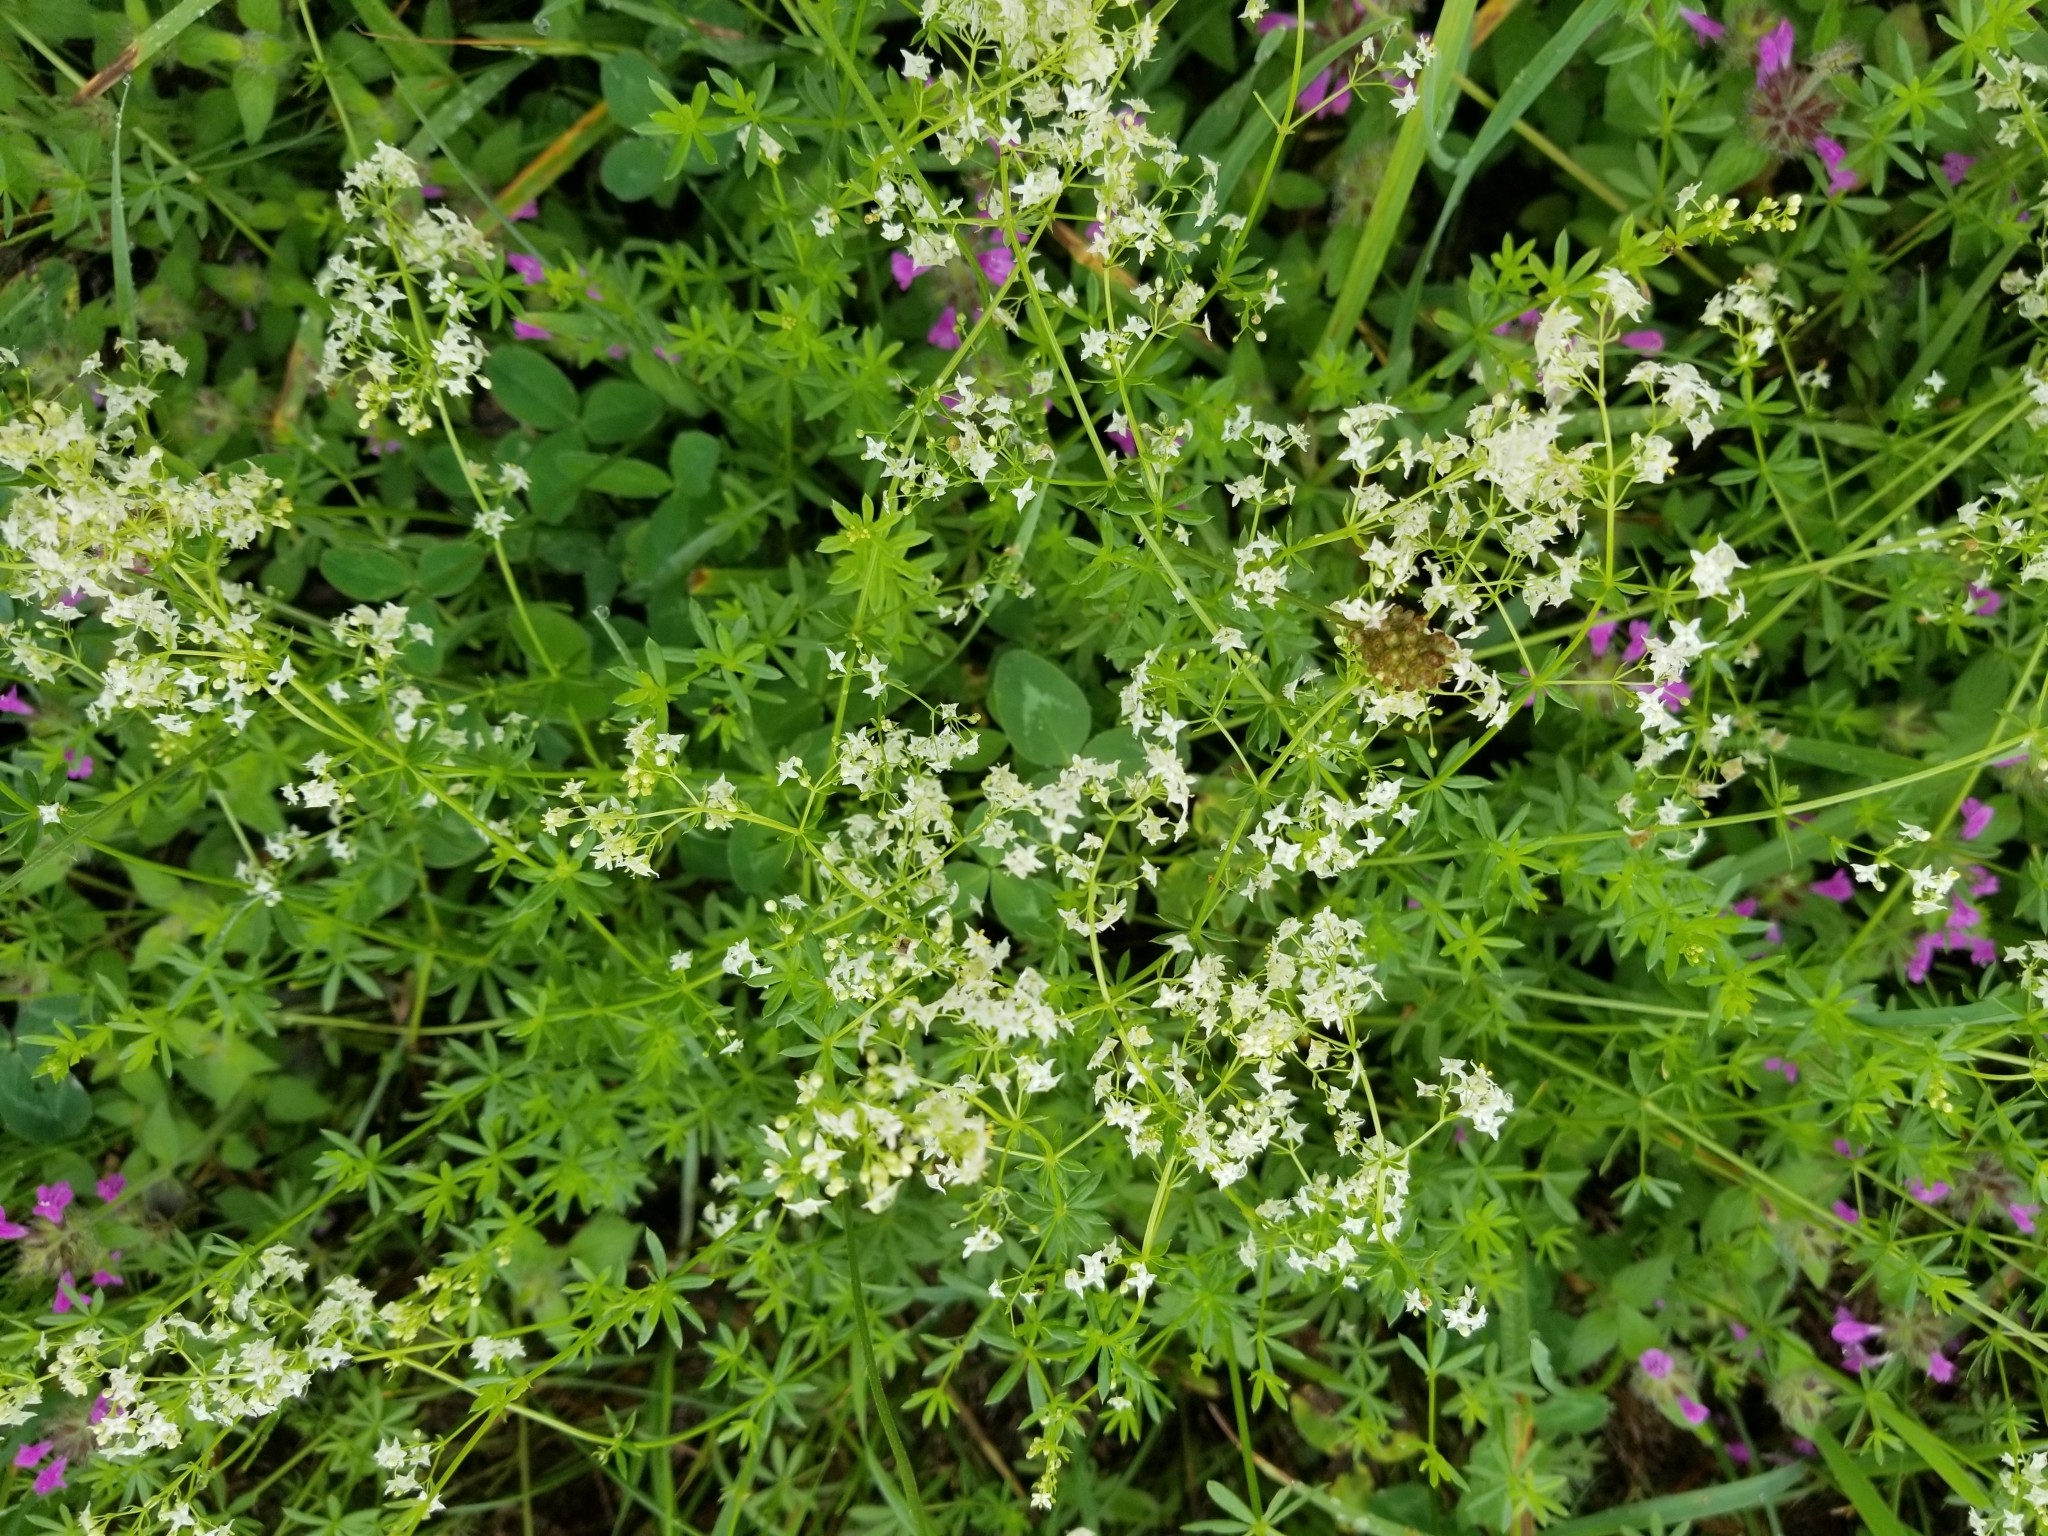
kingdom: Plantae
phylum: Tracheophyta
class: Magnoliopsida
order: Gentianales
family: Rubiaceae
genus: Galium
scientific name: Galium mollugo
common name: Hedge bedstraw
